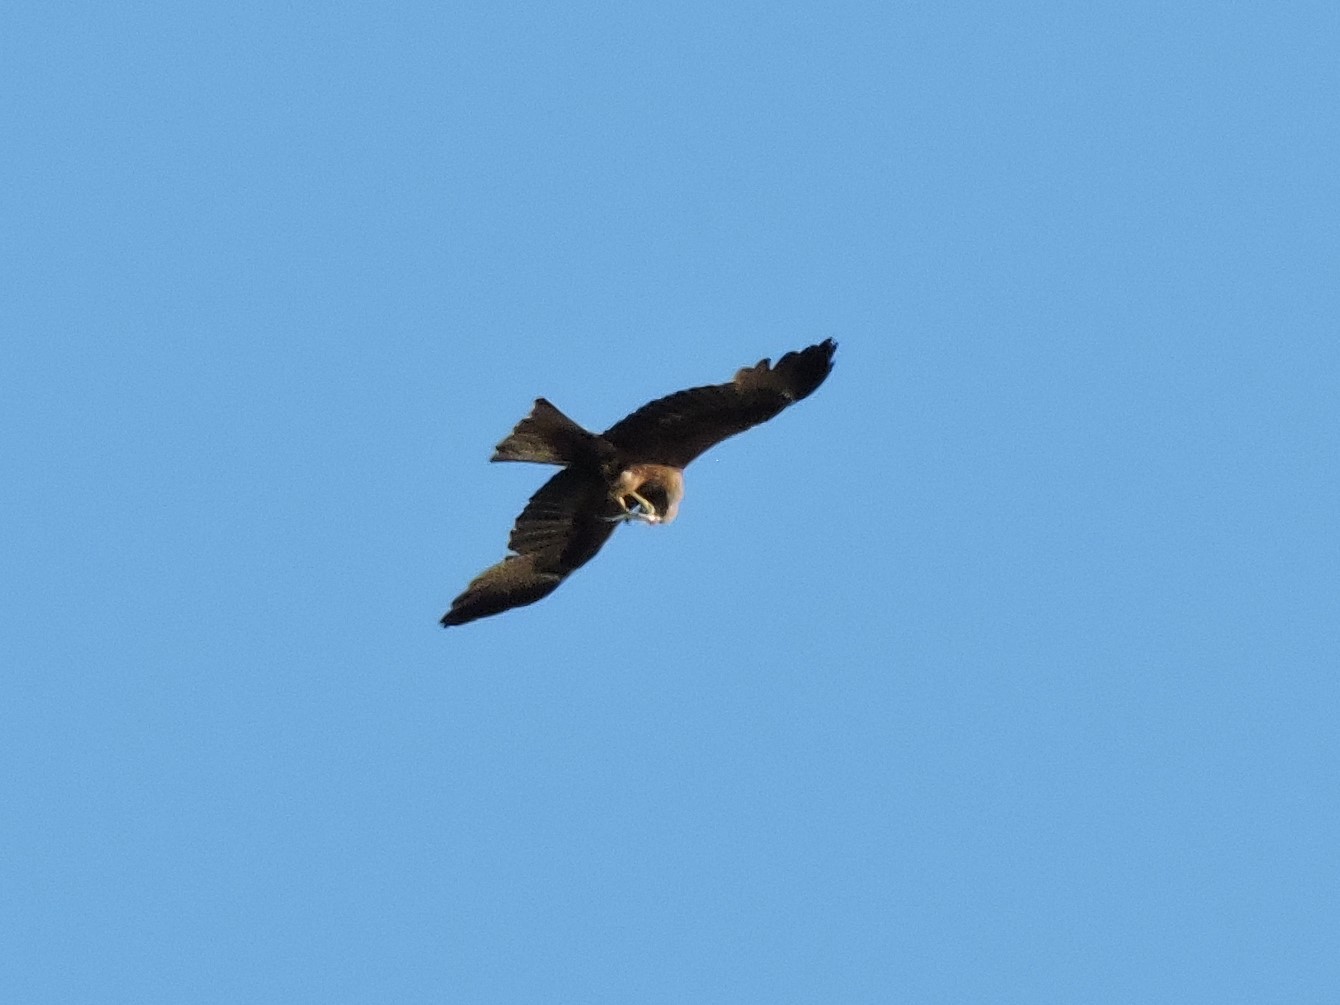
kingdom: Animalia
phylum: Chordata
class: Aves
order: Accipitriformes
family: Accipitridae
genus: Milvus
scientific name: Milvus migrans
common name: Black kite
